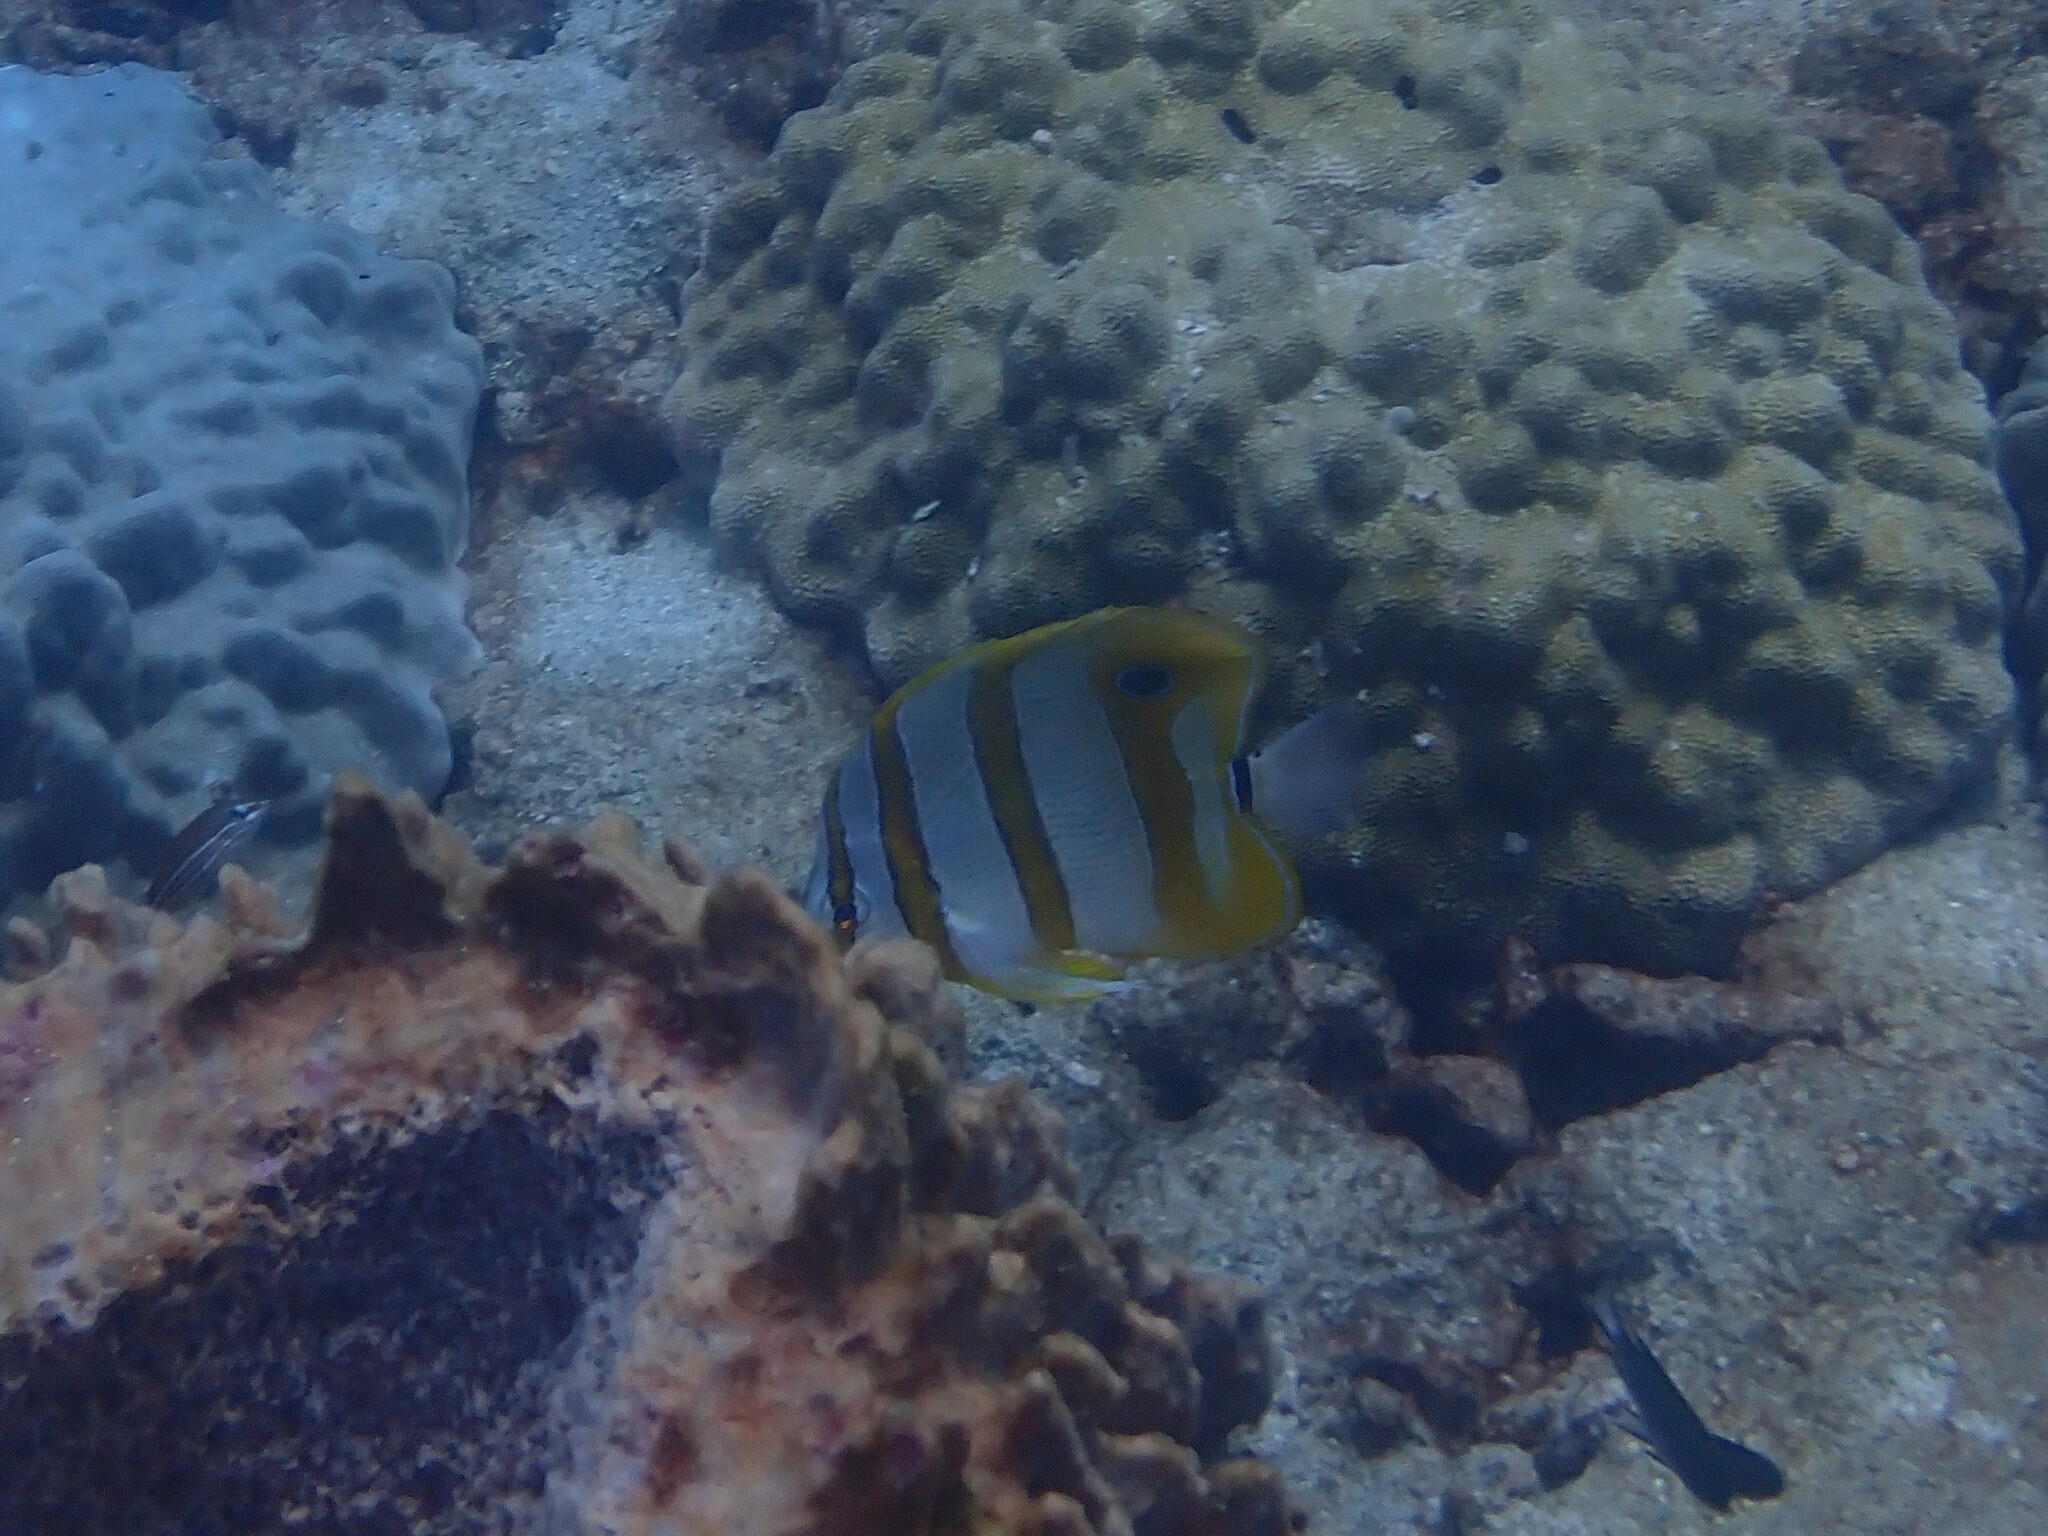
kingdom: Animalia
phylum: Chordata
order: Perciformes
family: Chaetodontidae
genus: Chelmon
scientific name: Chelmon rostratus
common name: Beaked butterflyfish
